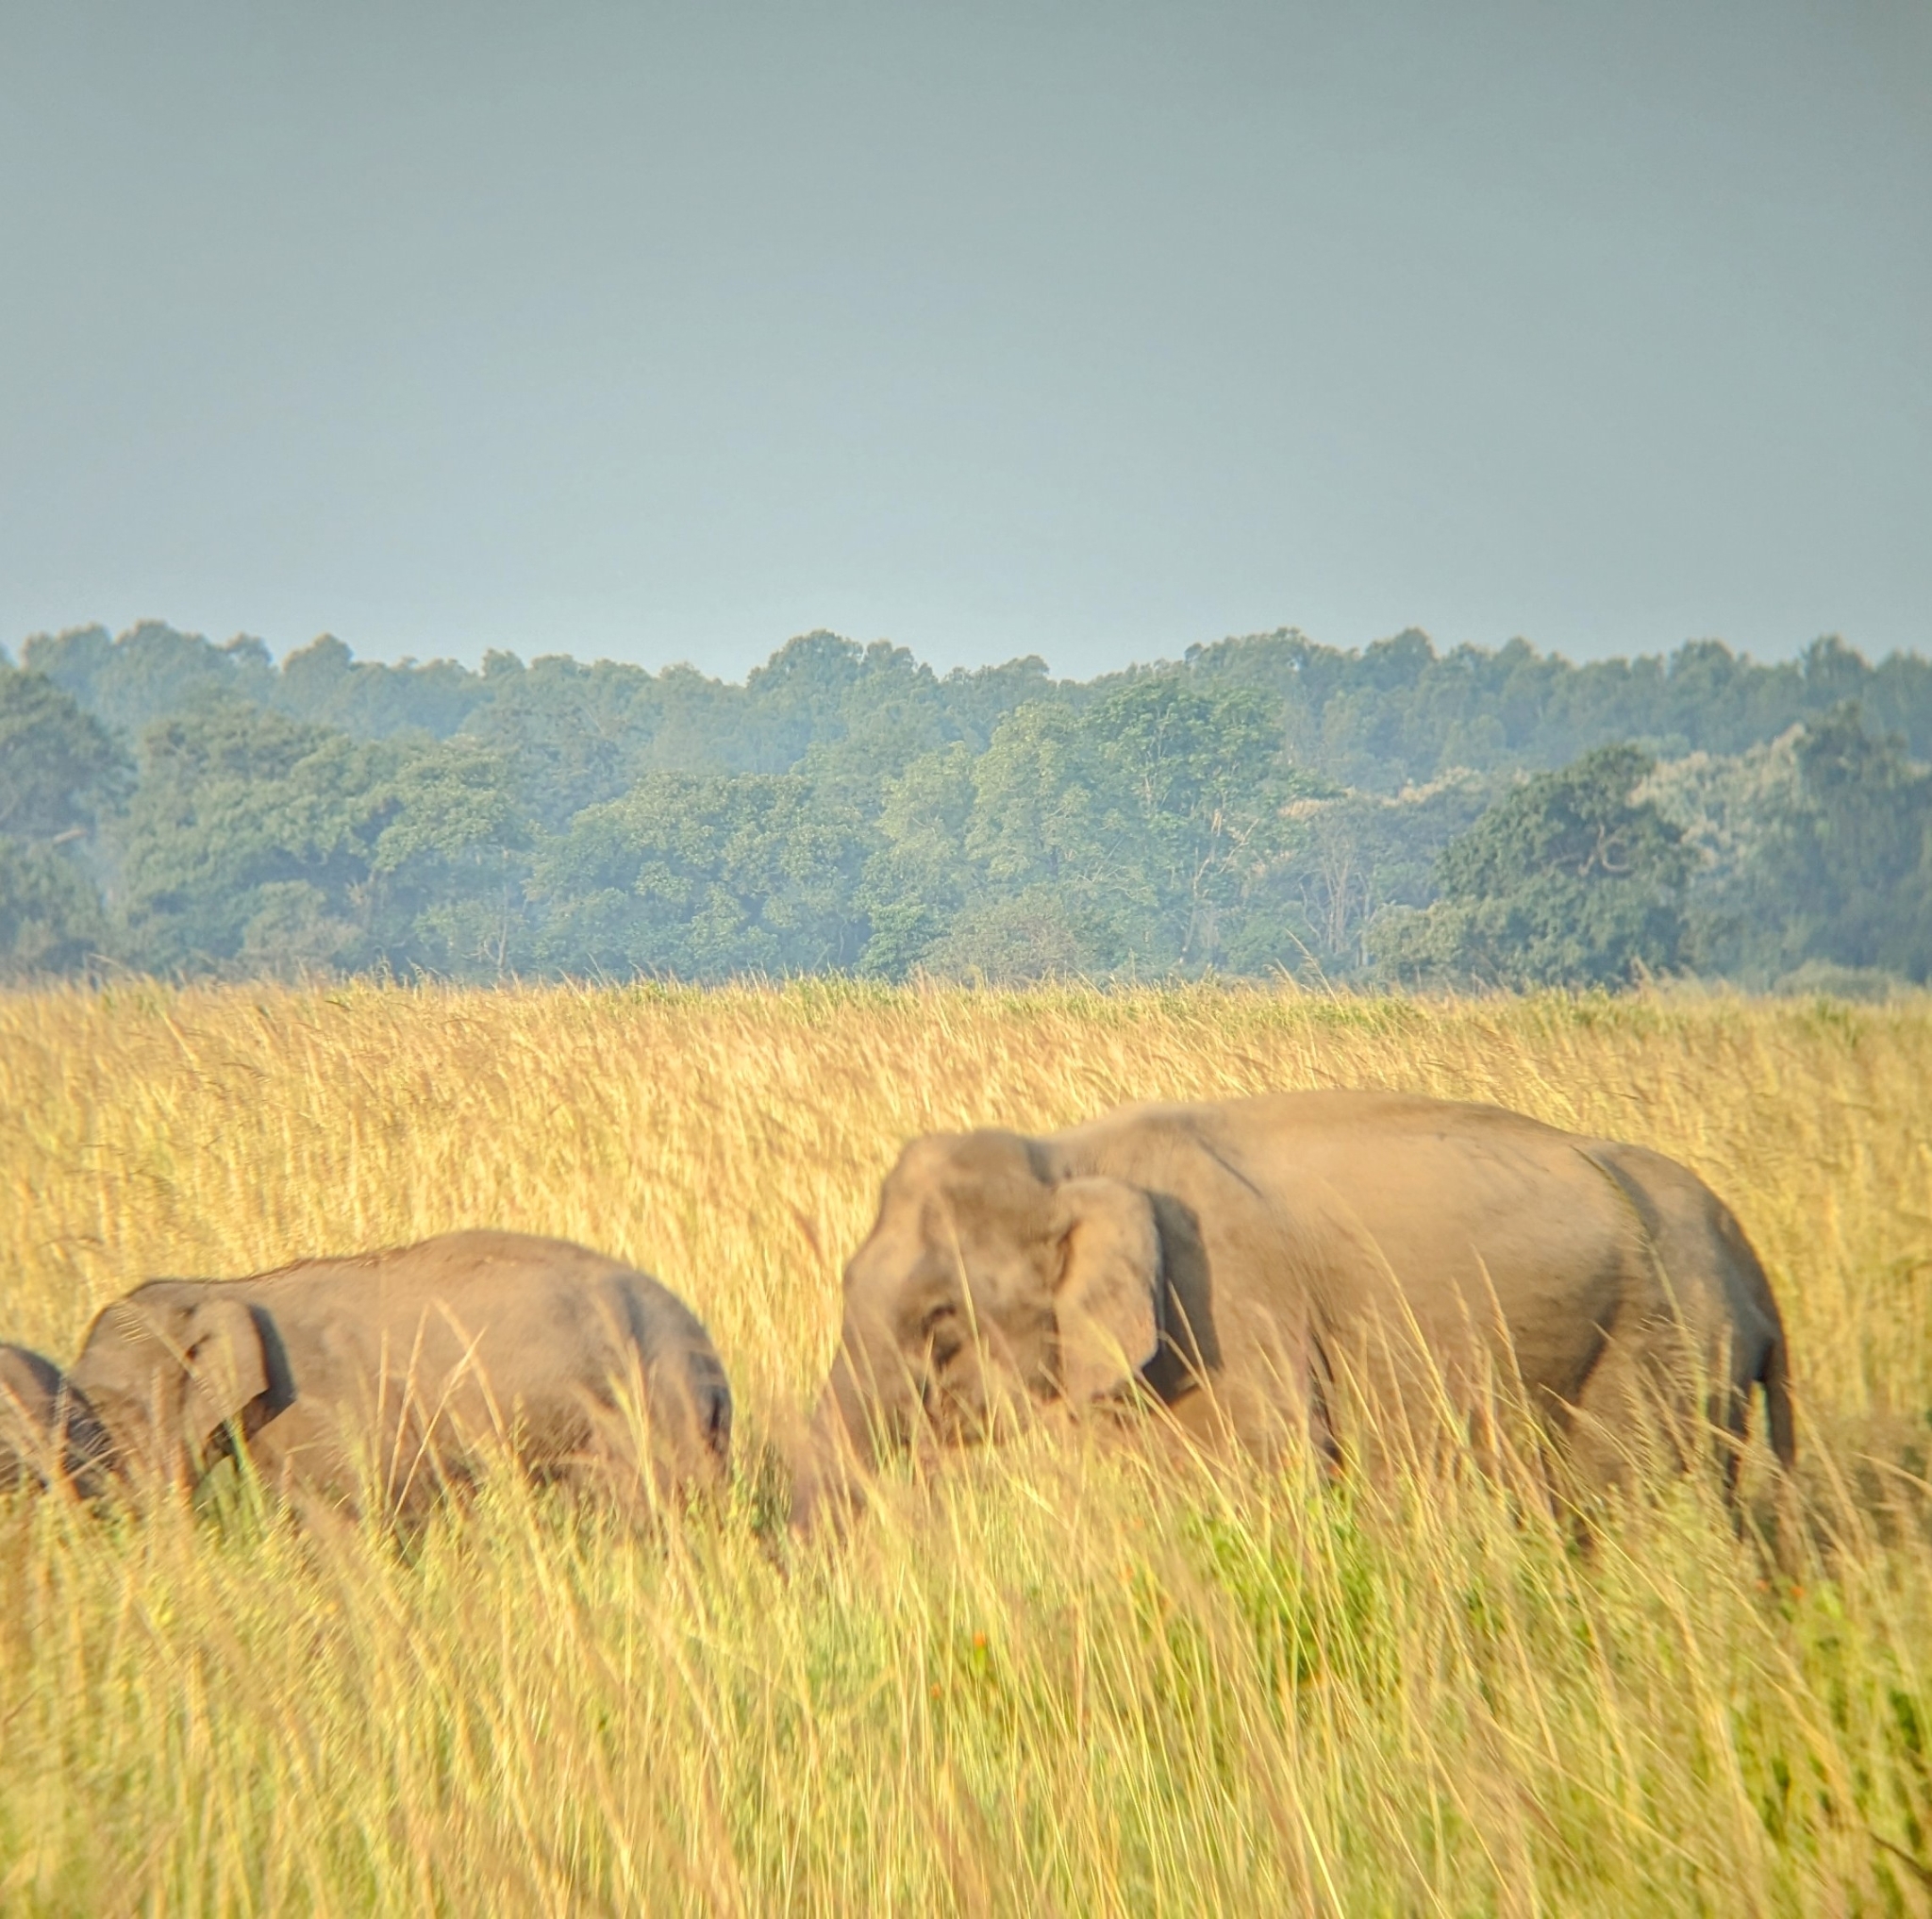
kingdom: Animalia
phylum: Chordata
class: Mammalia
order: Proboscidea
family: Elephantidae
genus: Elephas
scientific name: Elephas maximus
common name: Asian elephant
